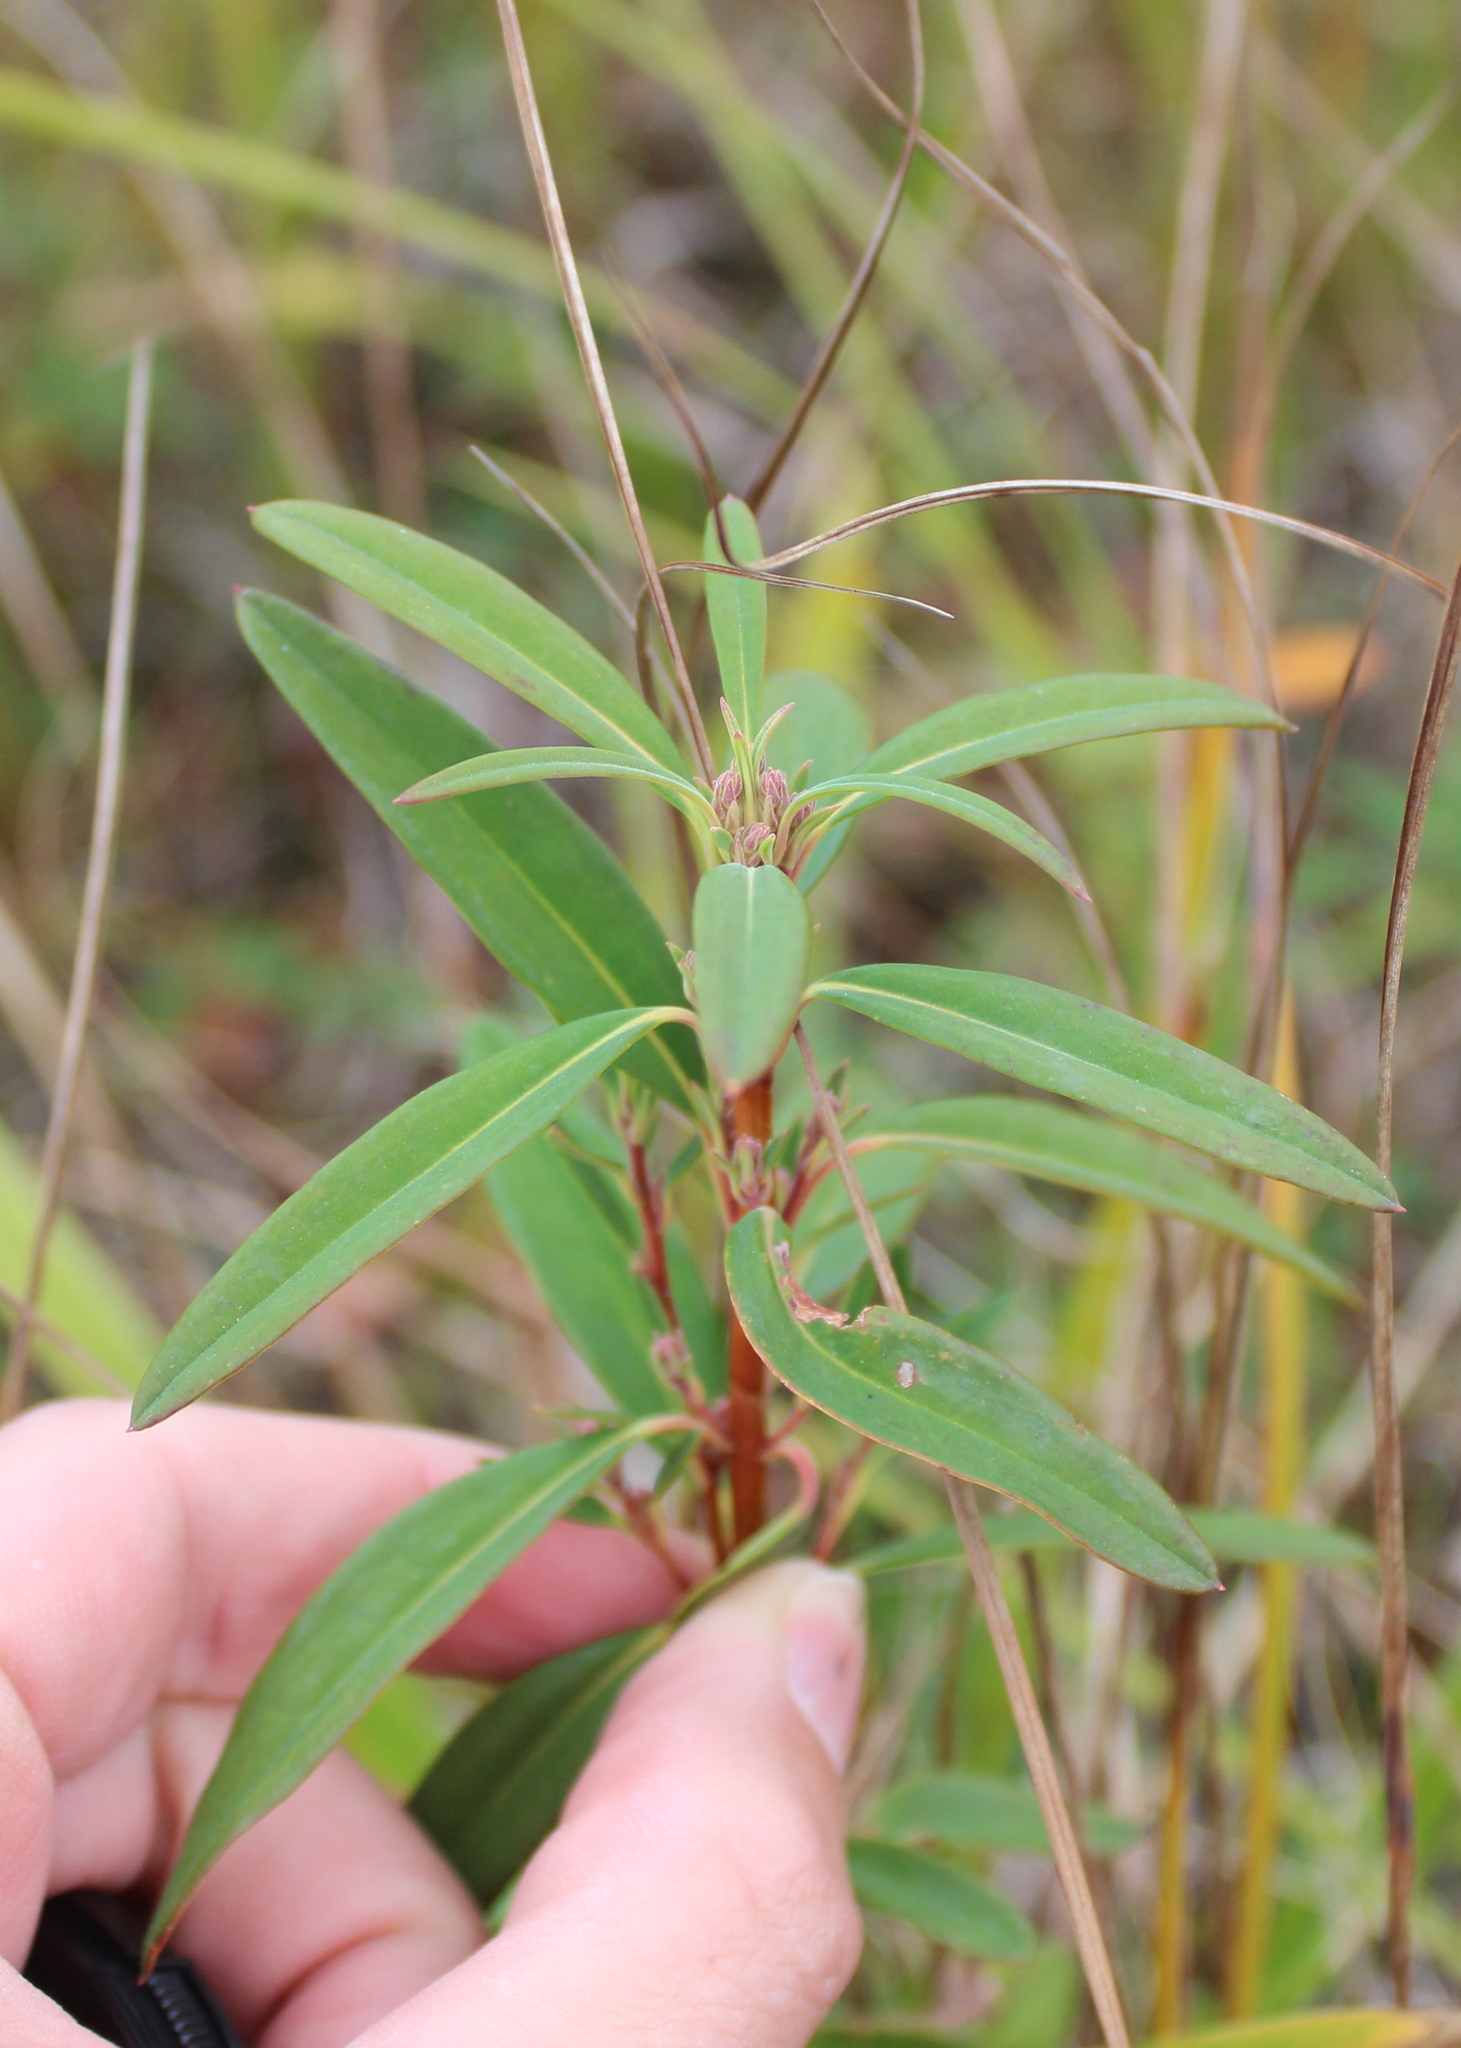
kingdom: Plantae
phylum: Tracheophyta
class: Magnoliopsida
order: Ericales
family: Ericaceae
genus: Kalmia
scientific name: Kalmia angustifolia
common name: Sheep-laurel
